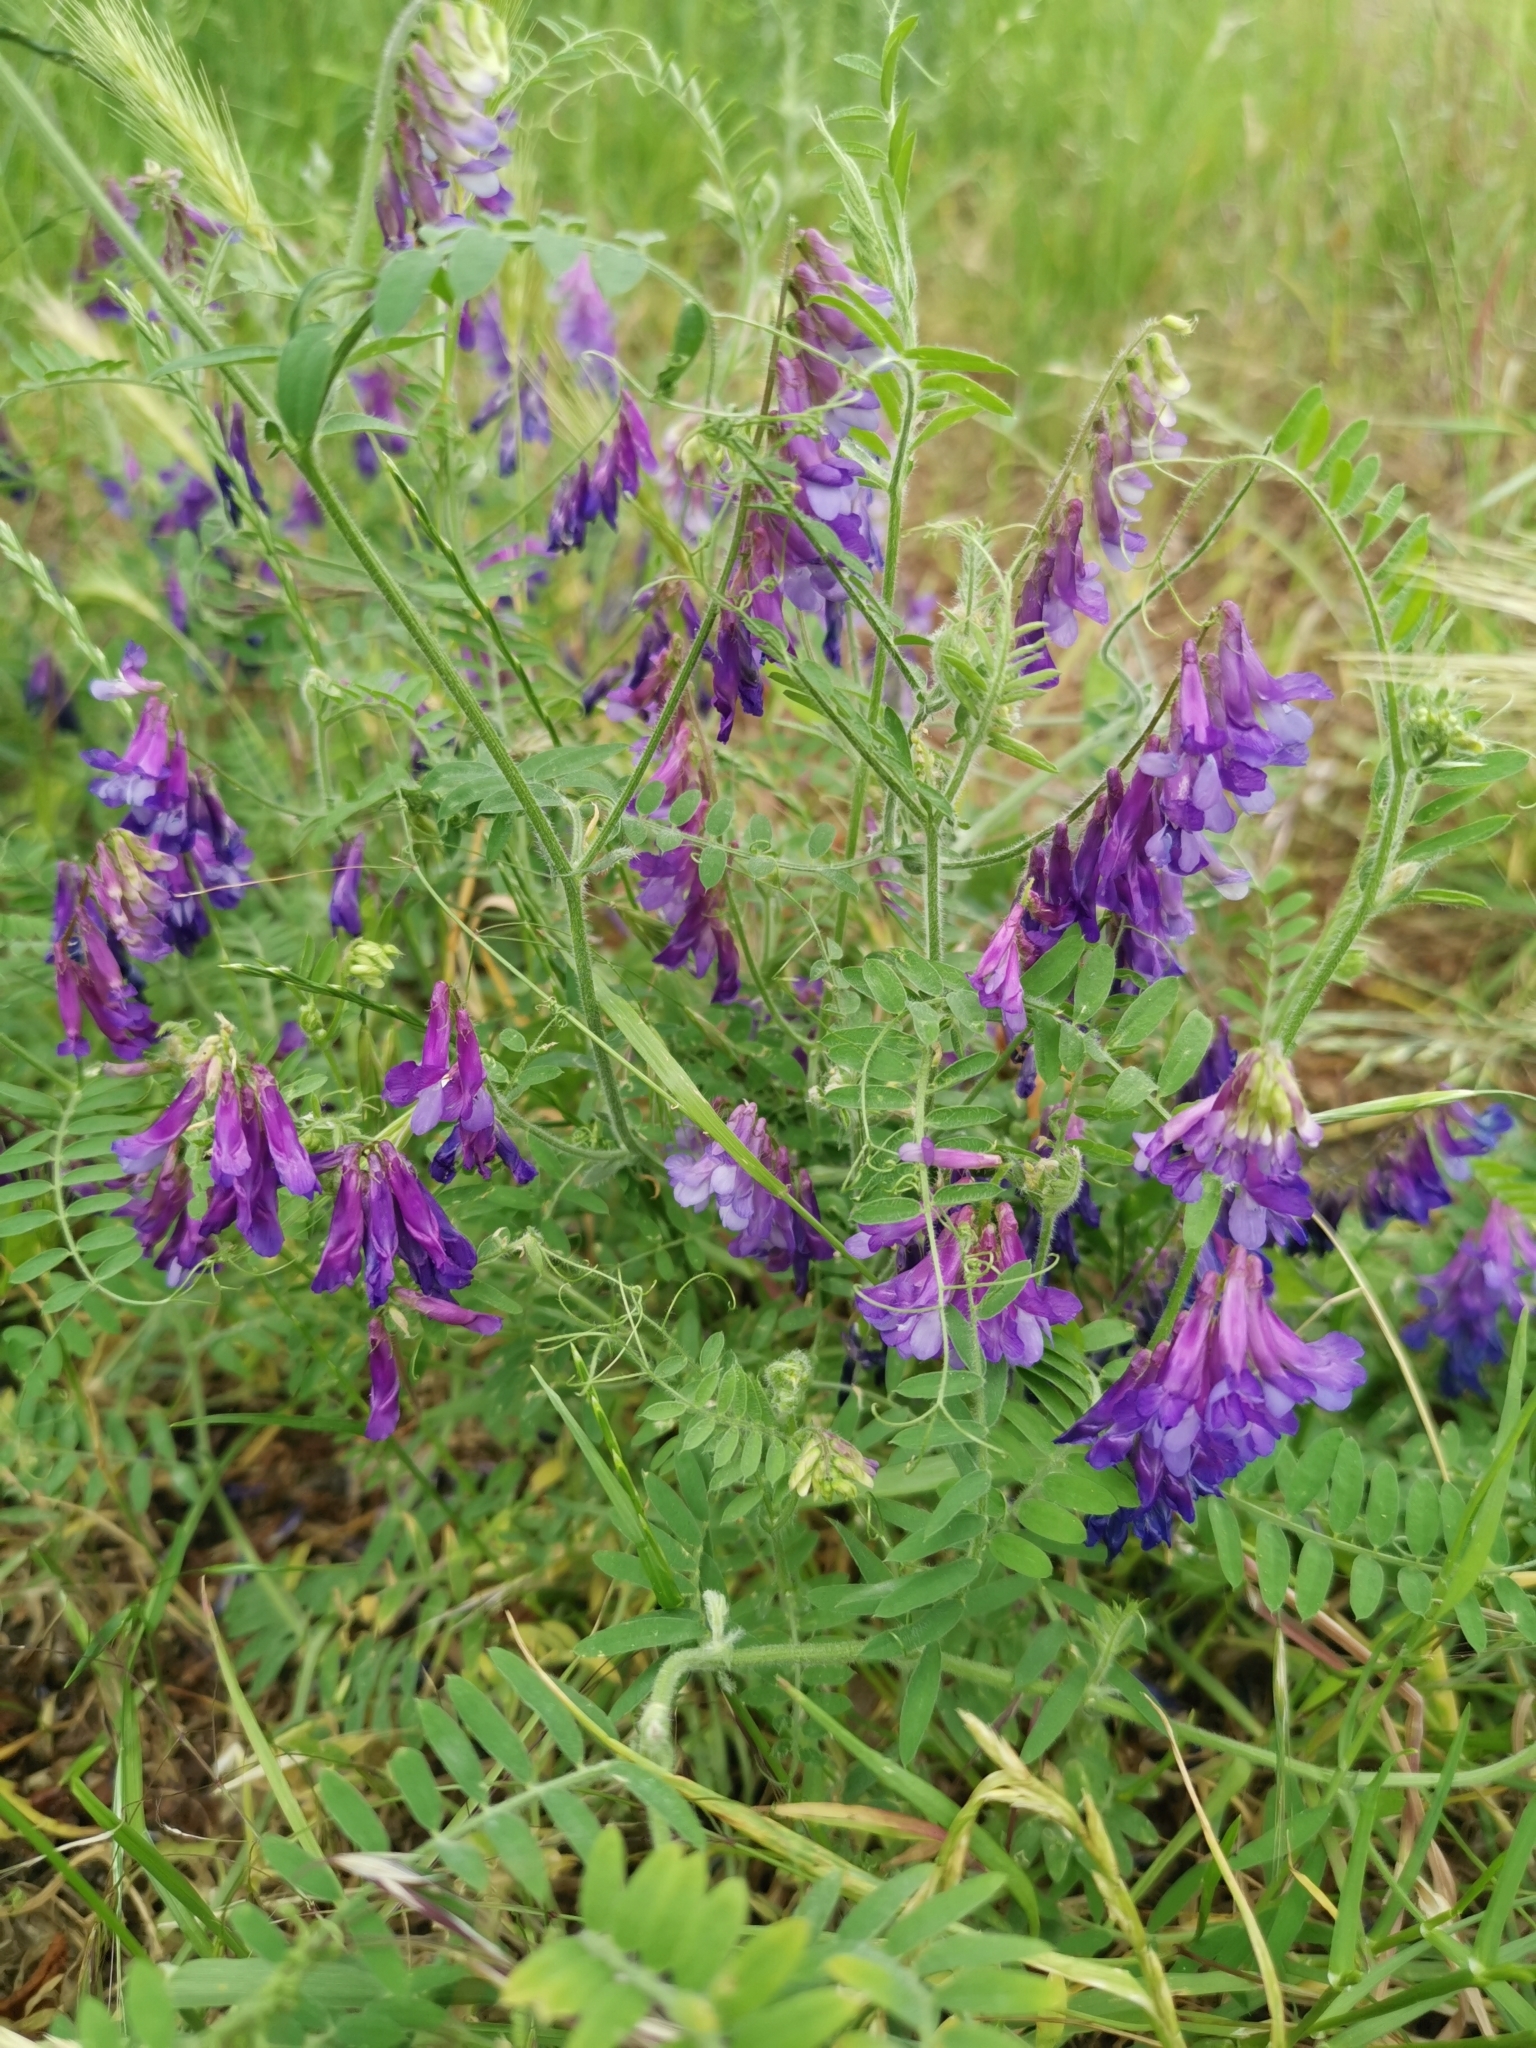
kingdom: Plantae
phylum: Tracheophyta
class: Magnoliopsida
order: Fabales
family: Fabaceae
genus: Vicia
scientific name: Vicia villosa
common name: Fodder vetch
